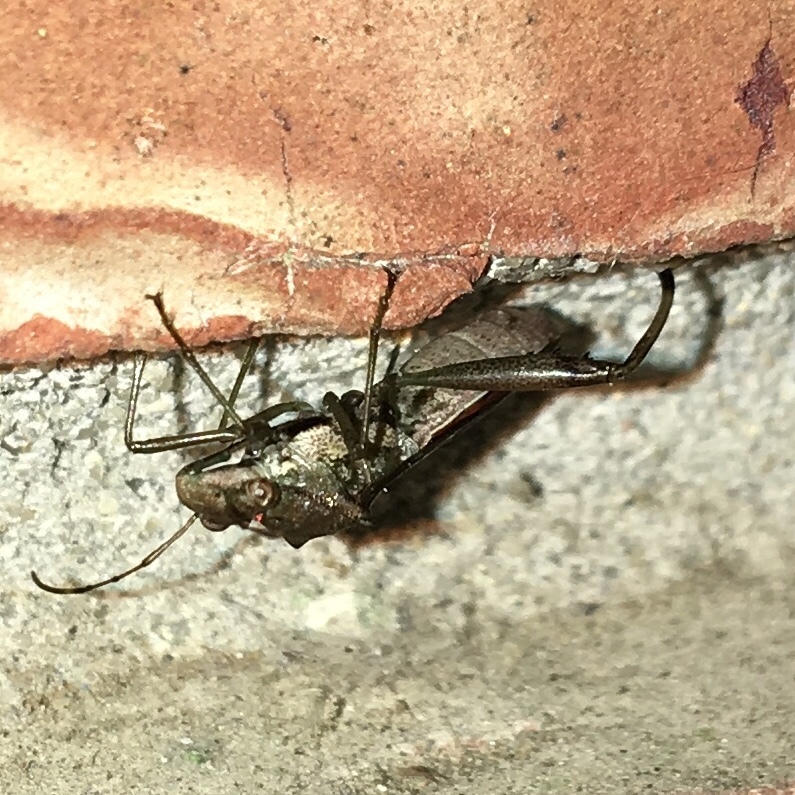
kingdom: Animalia
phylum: Arthropoda
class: Insecta
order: Hemiptera
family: Alydidae
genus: Hyalymenus
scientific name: Hyalymenus tarsatus
